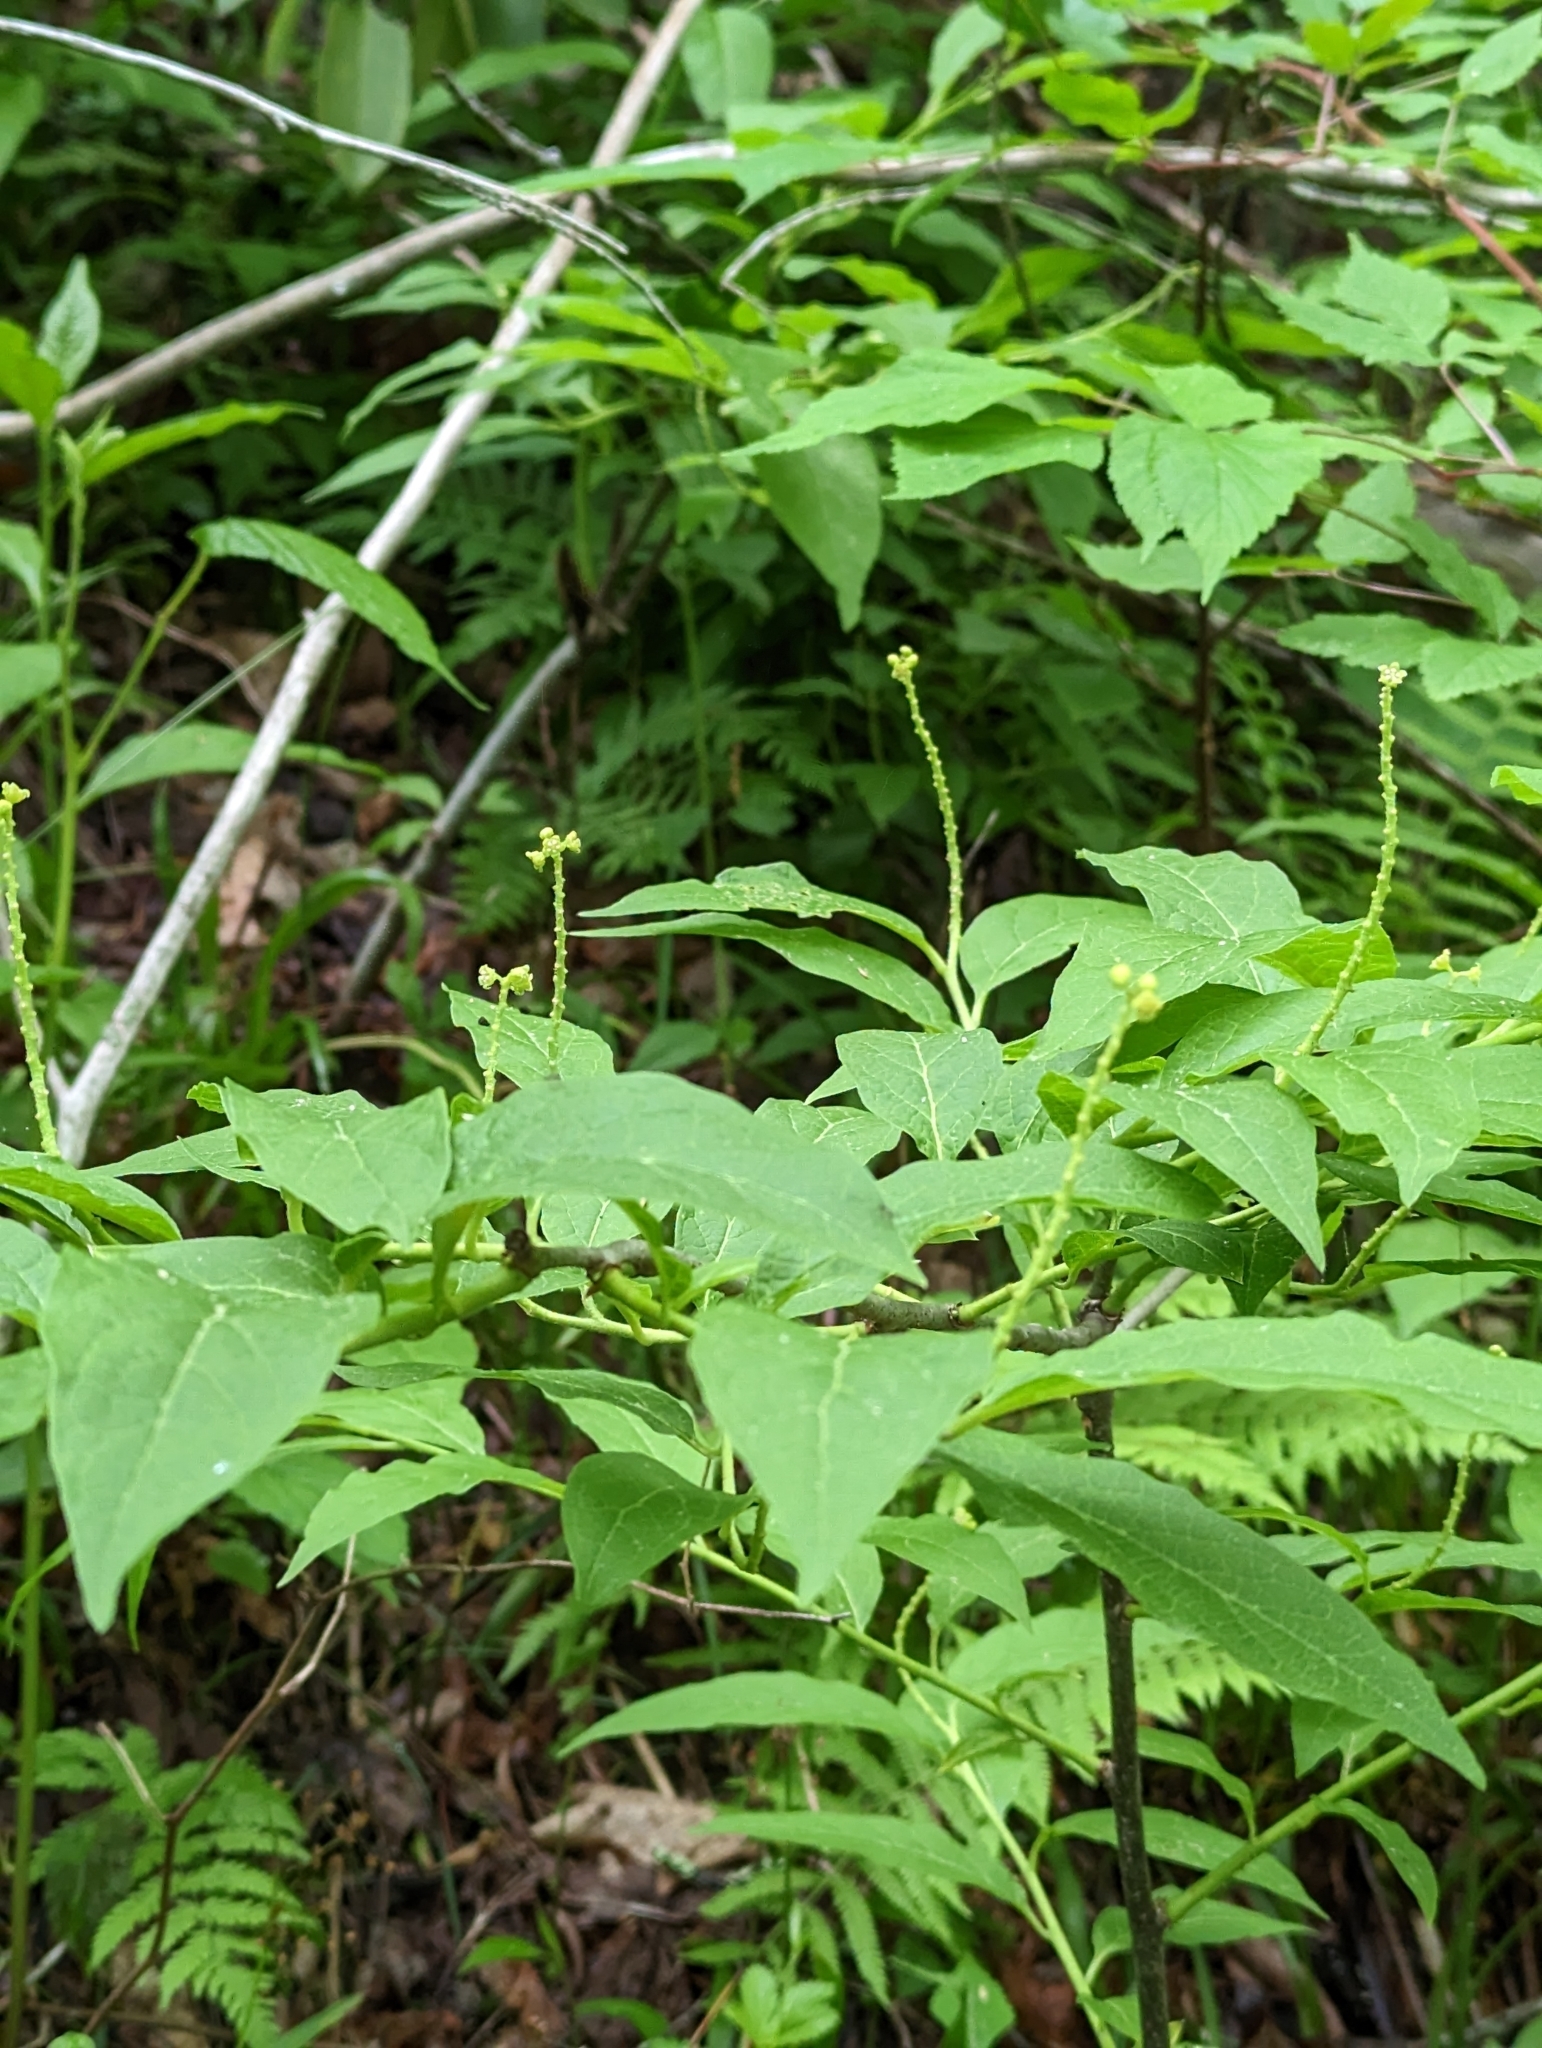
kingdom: Plantae
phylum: Tracheophyta
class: Magnoliopsida
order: Santalales
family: Cervantesiaceae
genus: Pyrularia
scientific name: Pyrularia pubera
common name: Oilnut
